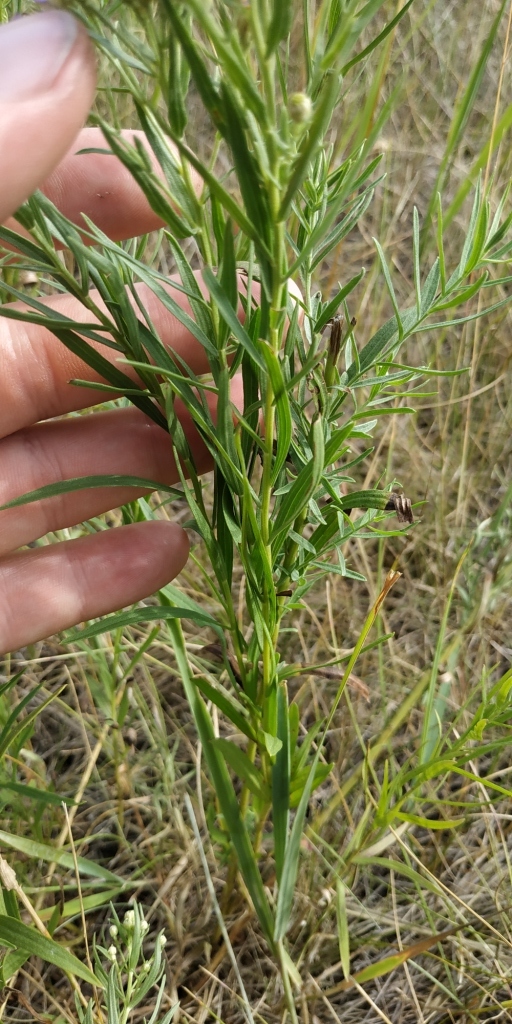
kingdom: Plantae
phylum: Tracheophyta
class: Magnoliopsida
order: Asterales
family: Asteraceae
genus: Galatella
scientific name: Galatella sedifolia
